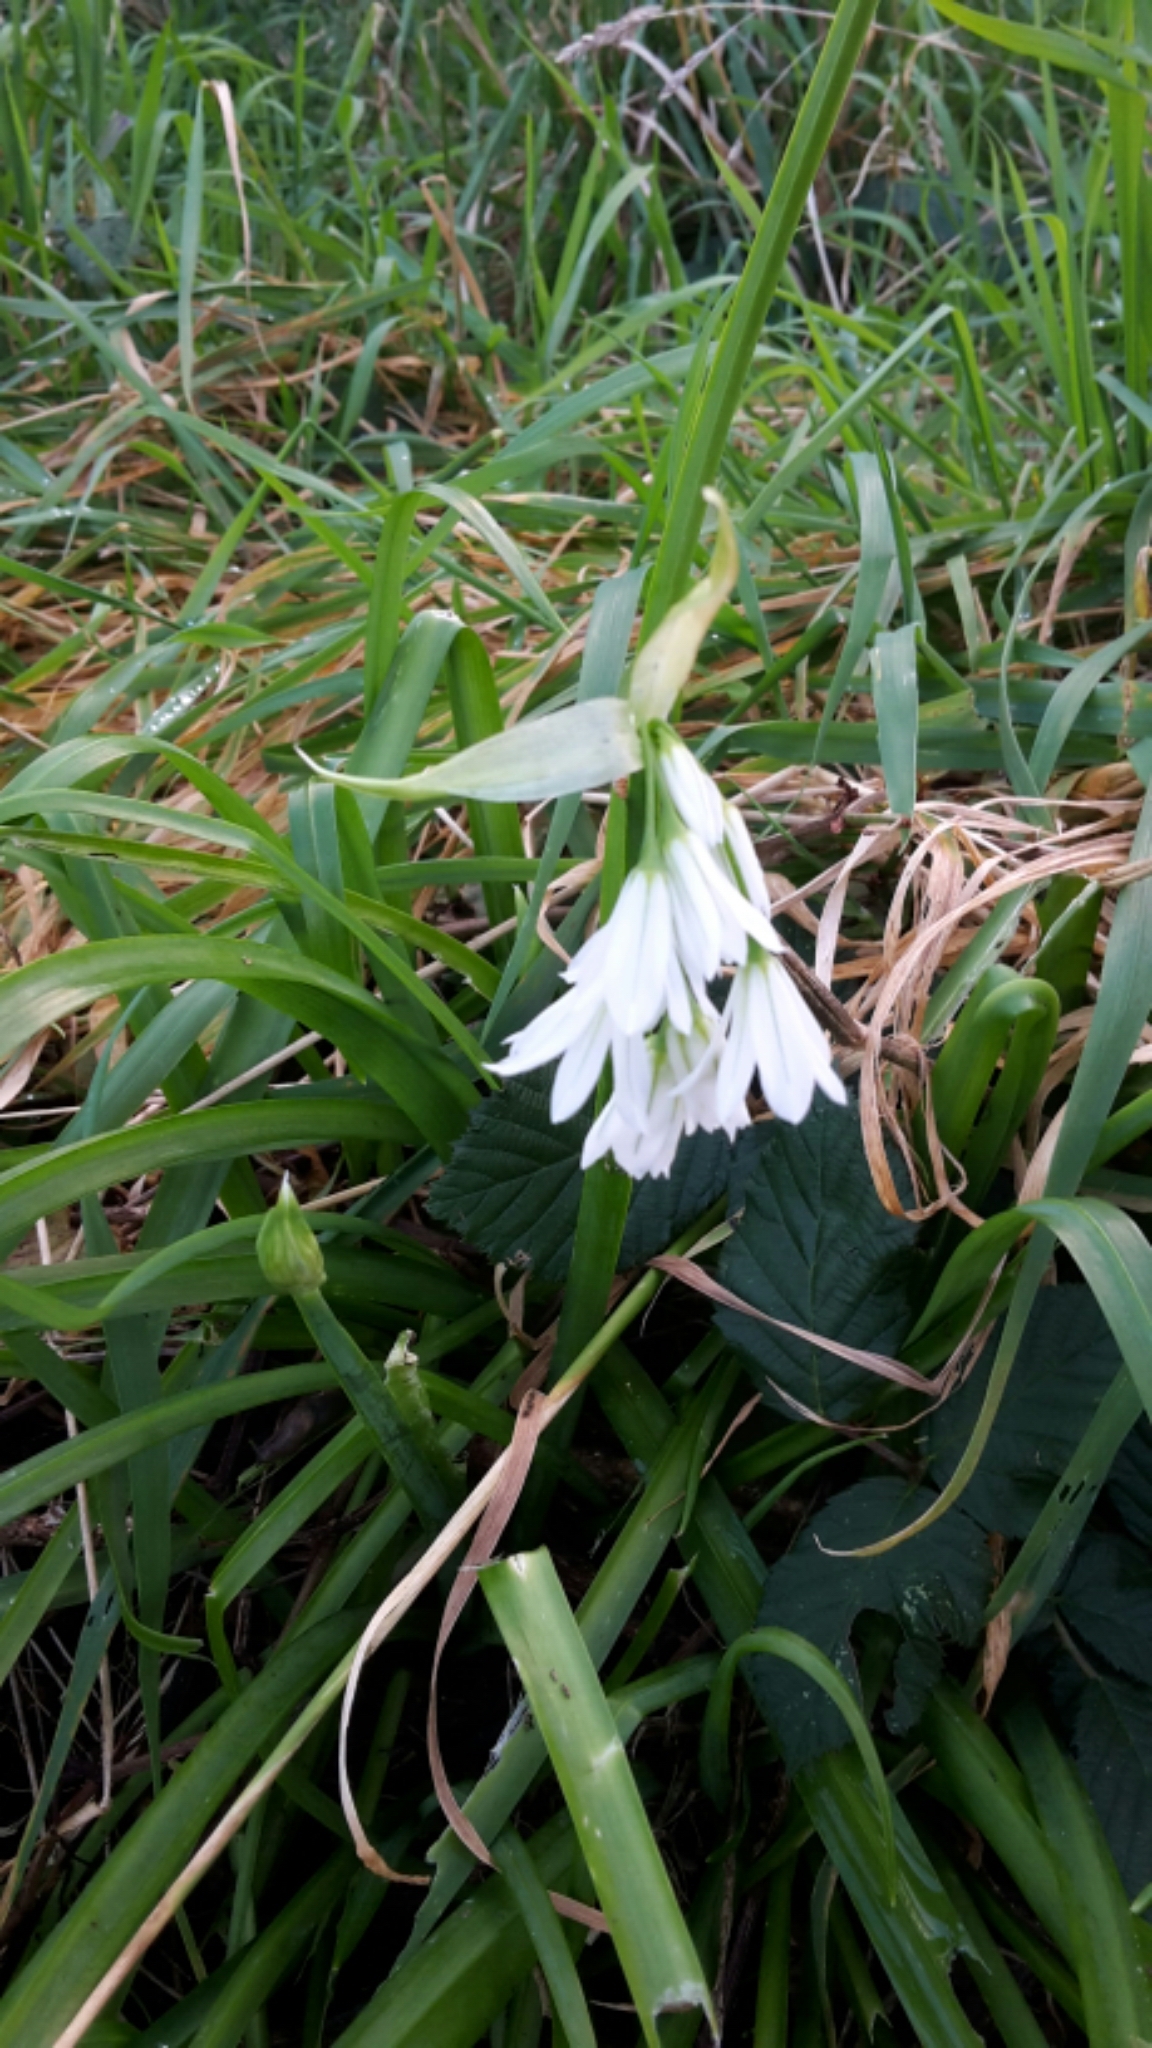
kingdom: Plantae
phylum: Tracheophyta
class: Liliopsida
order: Asparagales
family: Amaryllidaceae
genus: Allium
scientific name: Allium triquetrum
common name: Three-cornered garlic
